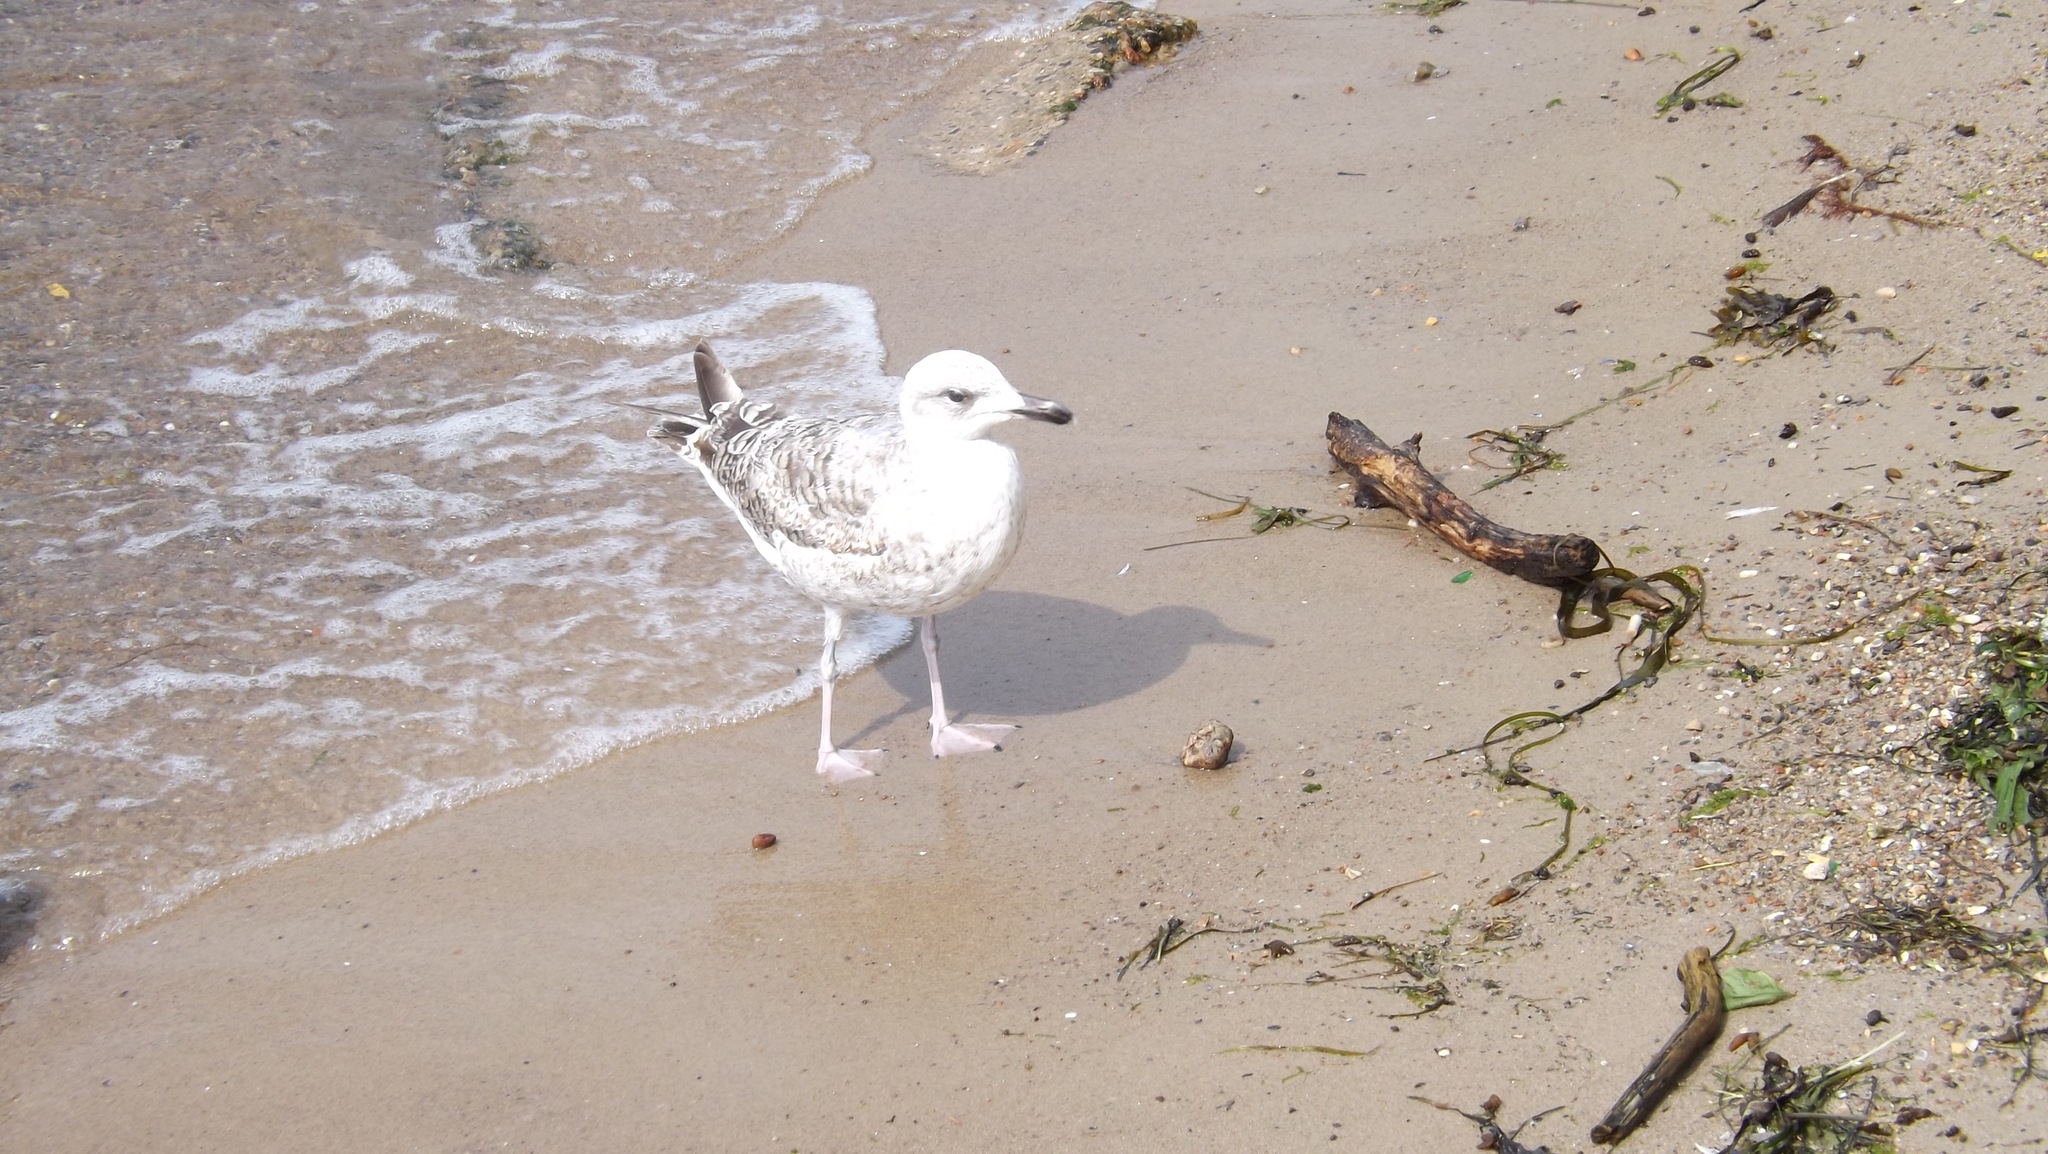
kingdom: Animalia
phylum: Chordata
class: Aves
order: Charadriiformes
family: Laridae
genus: Larus
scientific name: Larus argentatus
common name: Herring gull
